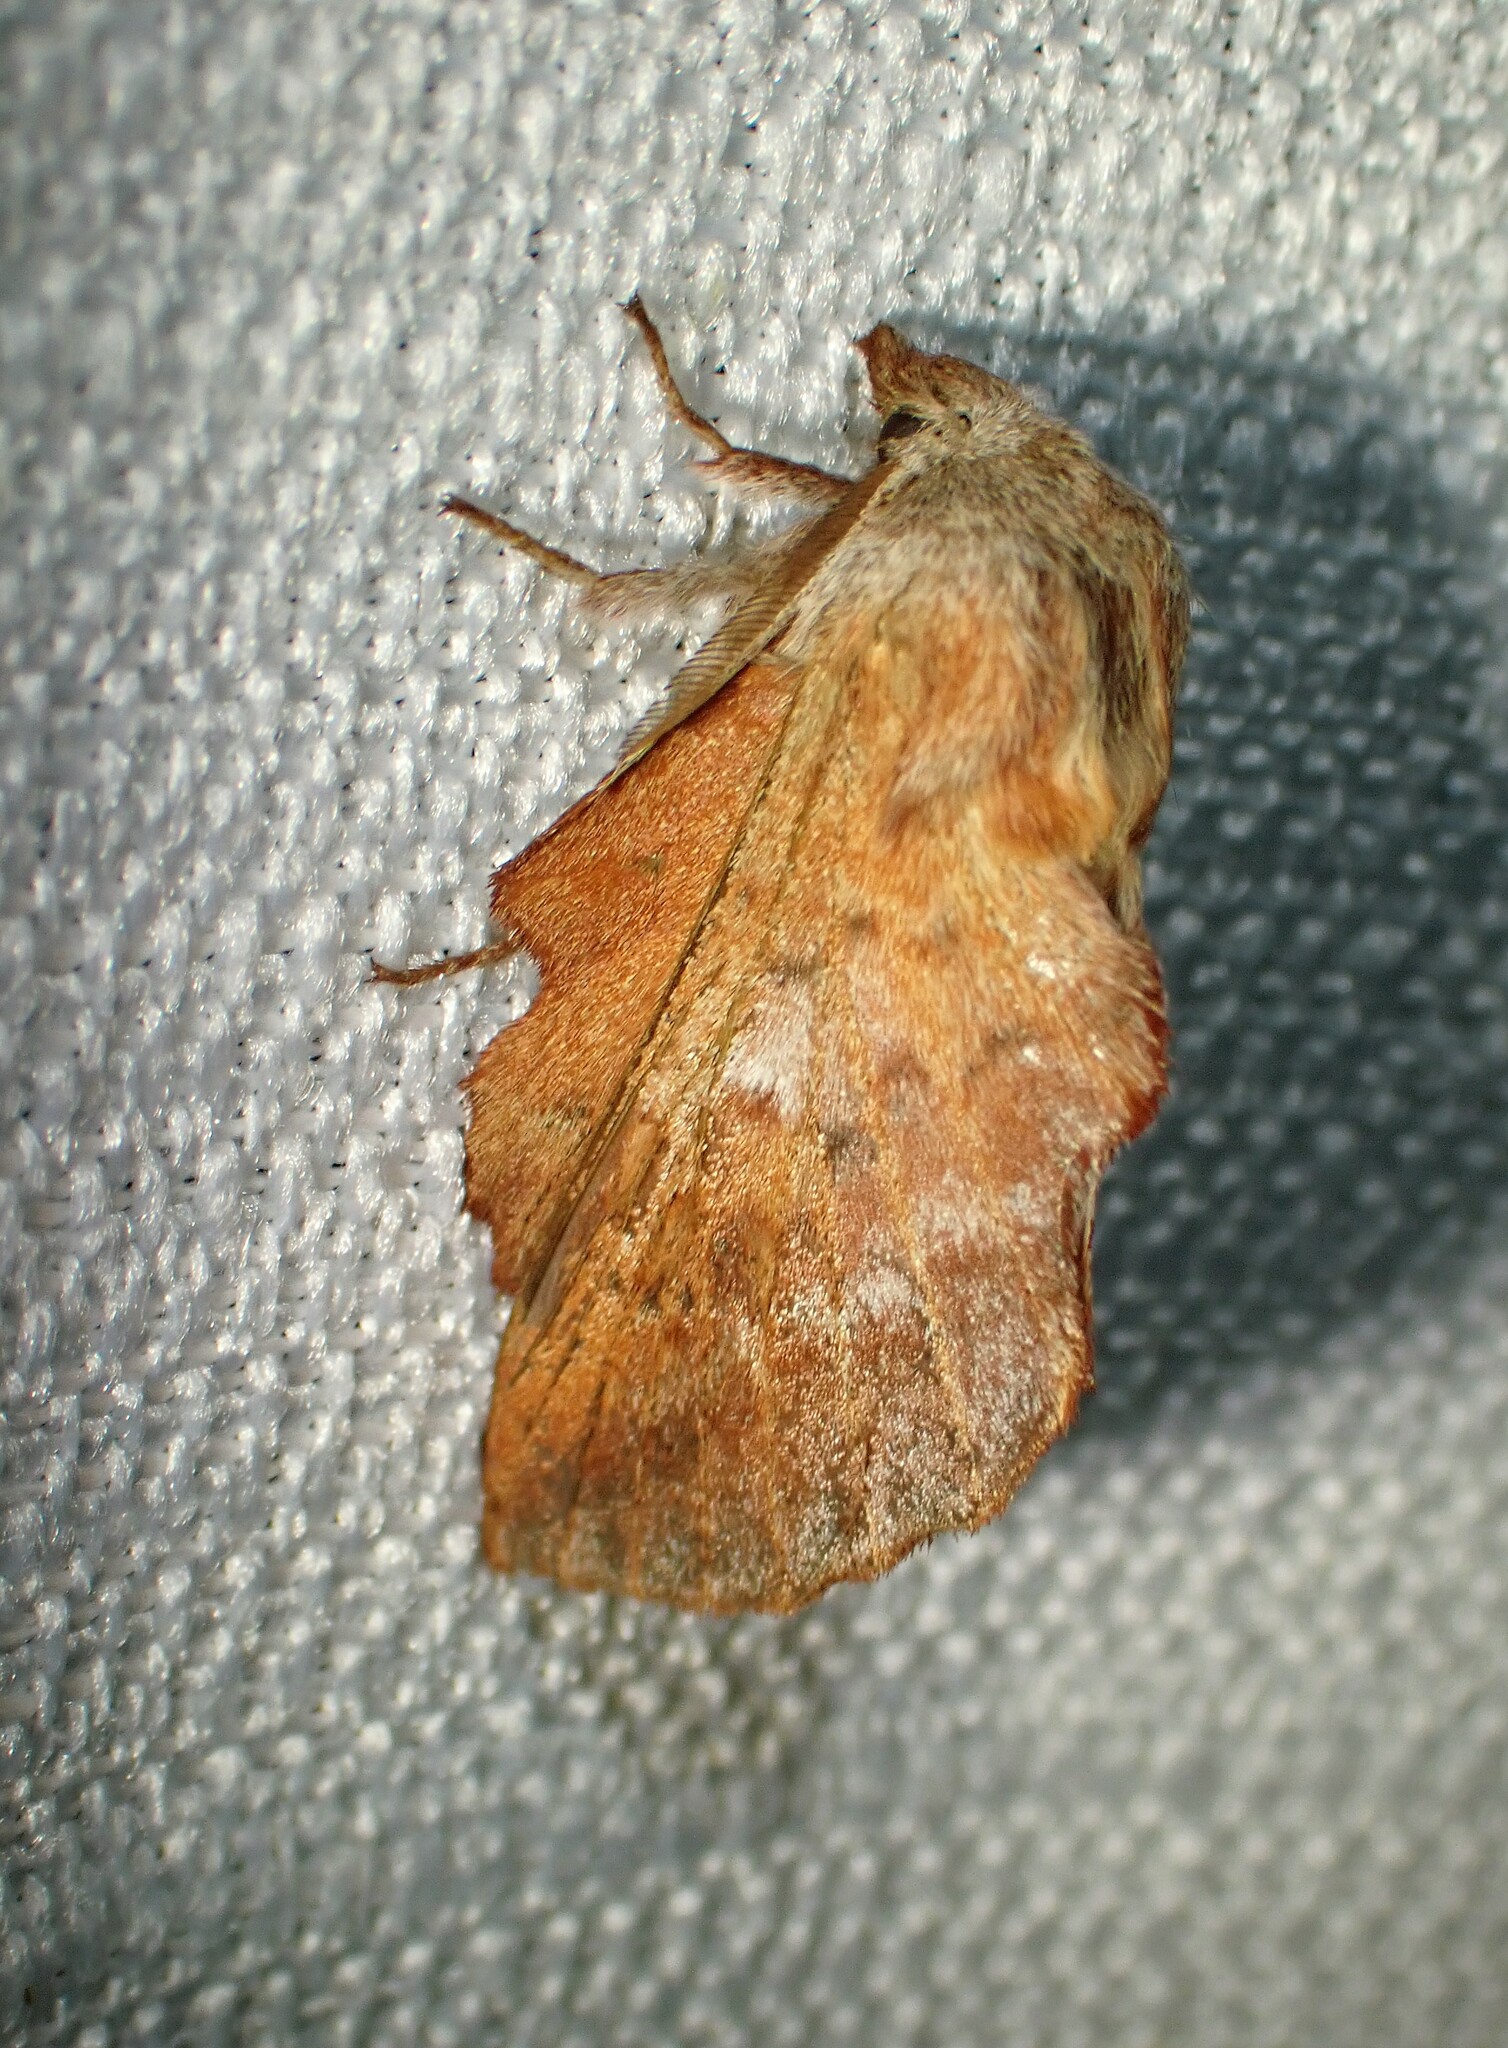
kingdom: Animalia
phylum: Arthropoda
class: Insecta
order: Lepidoptera
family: Lasiocampidae
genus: Phyllodesma
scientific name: Phyllodesma americana
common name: American lappet moth
